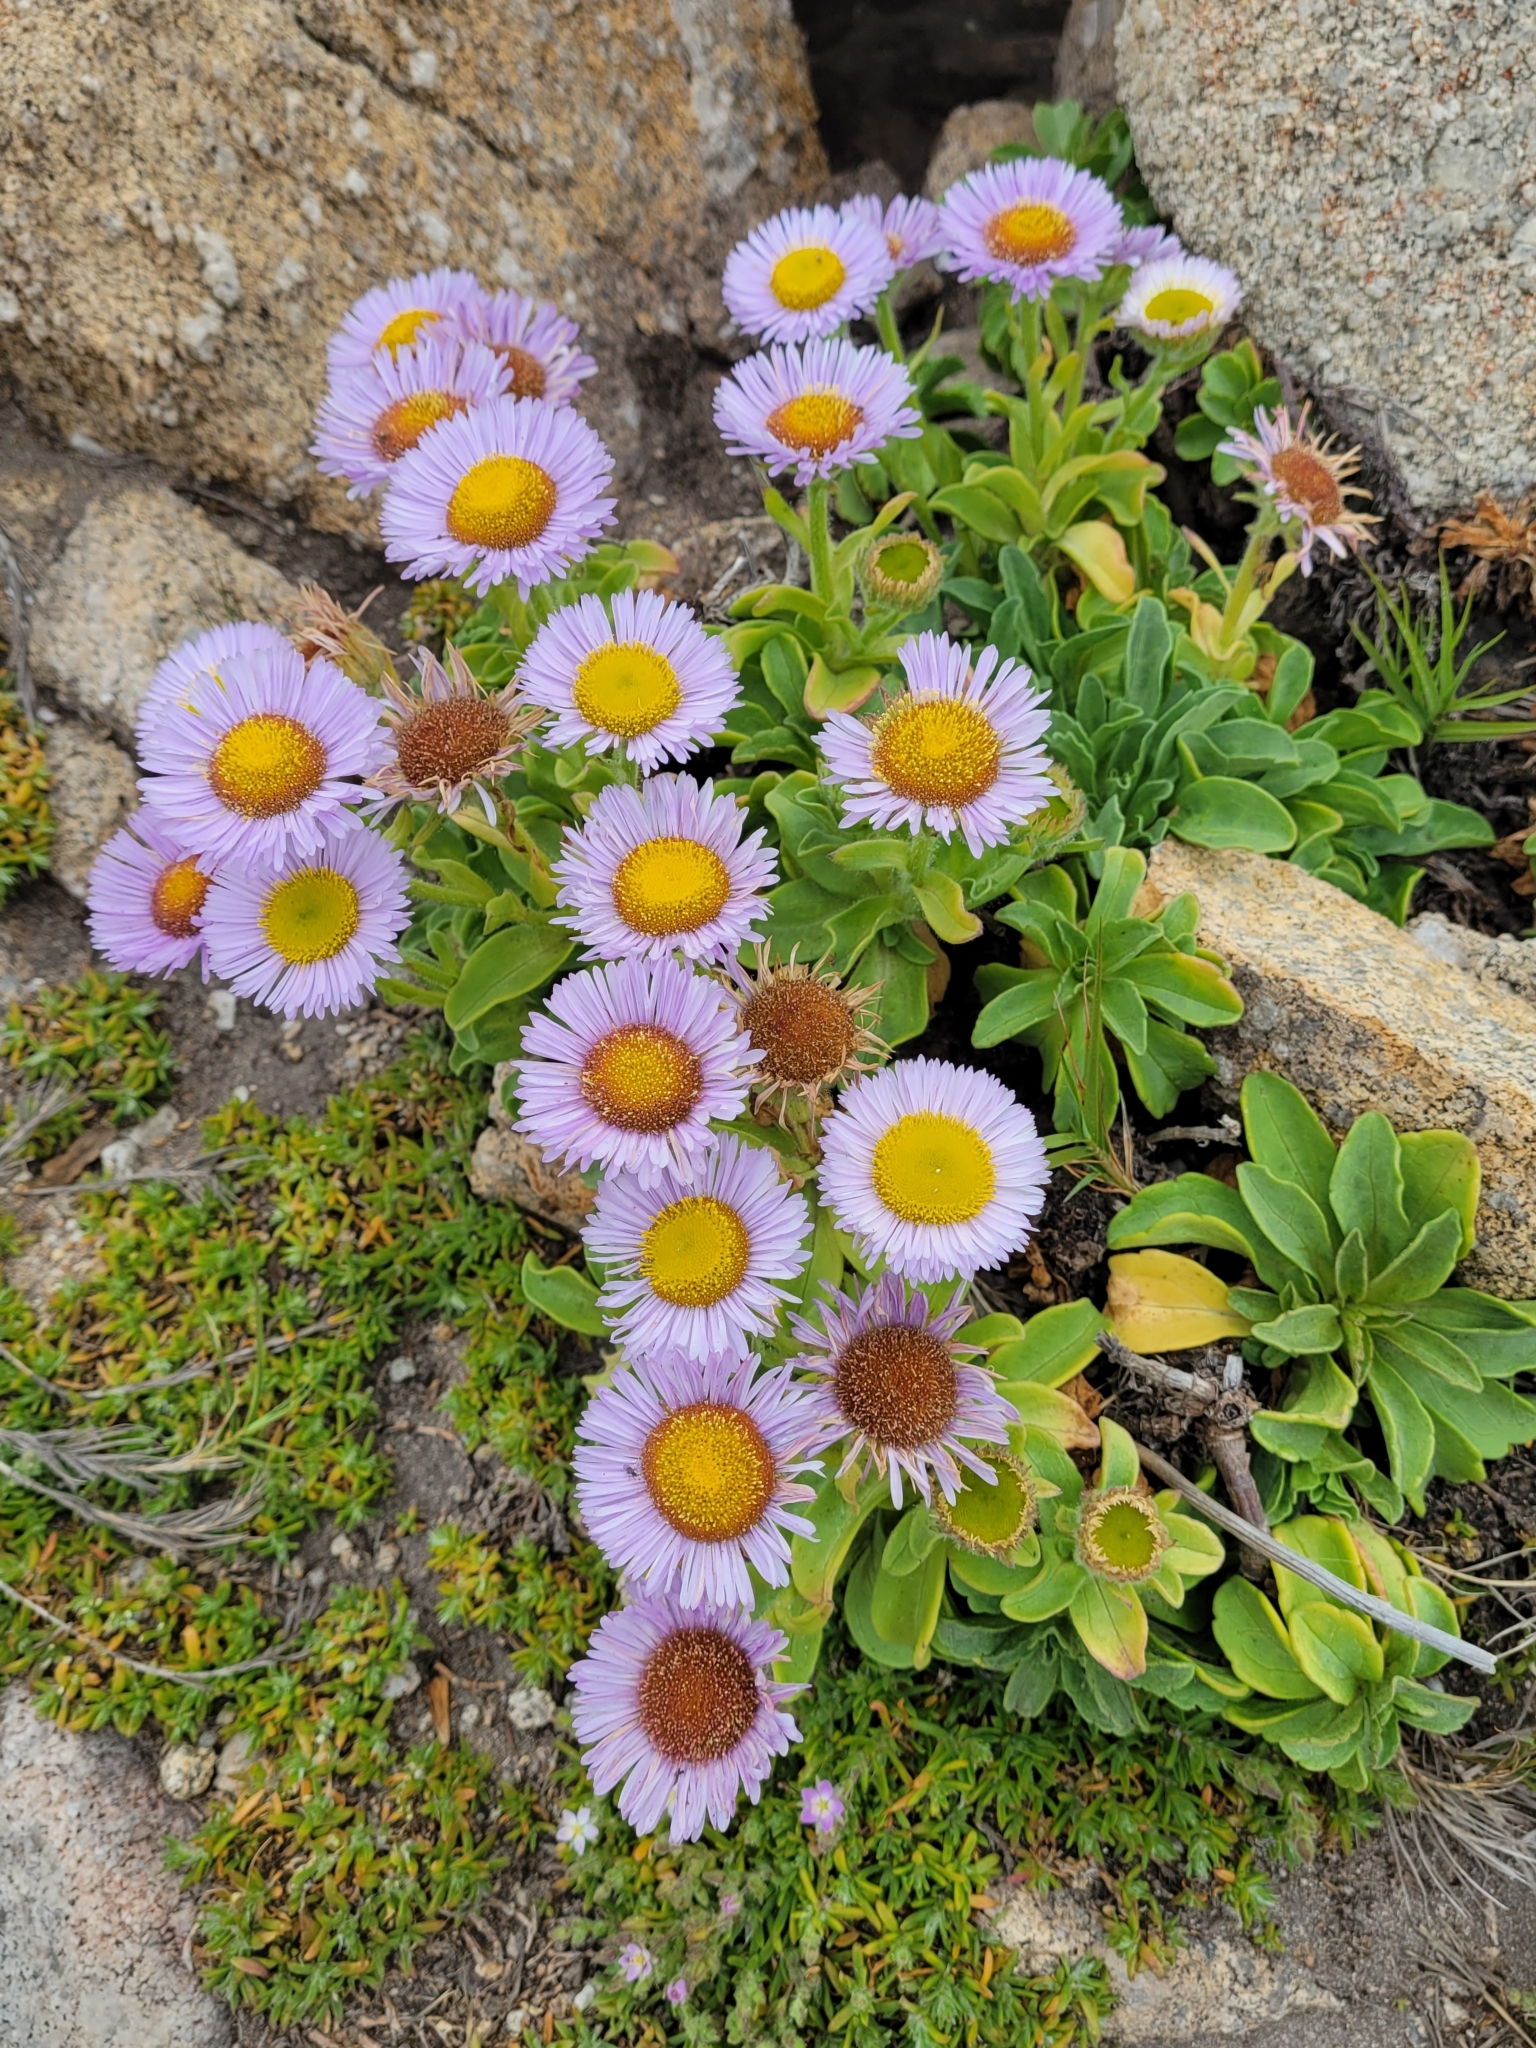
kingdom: Plantae
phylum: Tracheophyta
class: Magnoliopsida
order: Asterales
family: Asteraceae
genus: Erigeron
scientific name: Erigeron glaucus
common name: Seaside daisy
